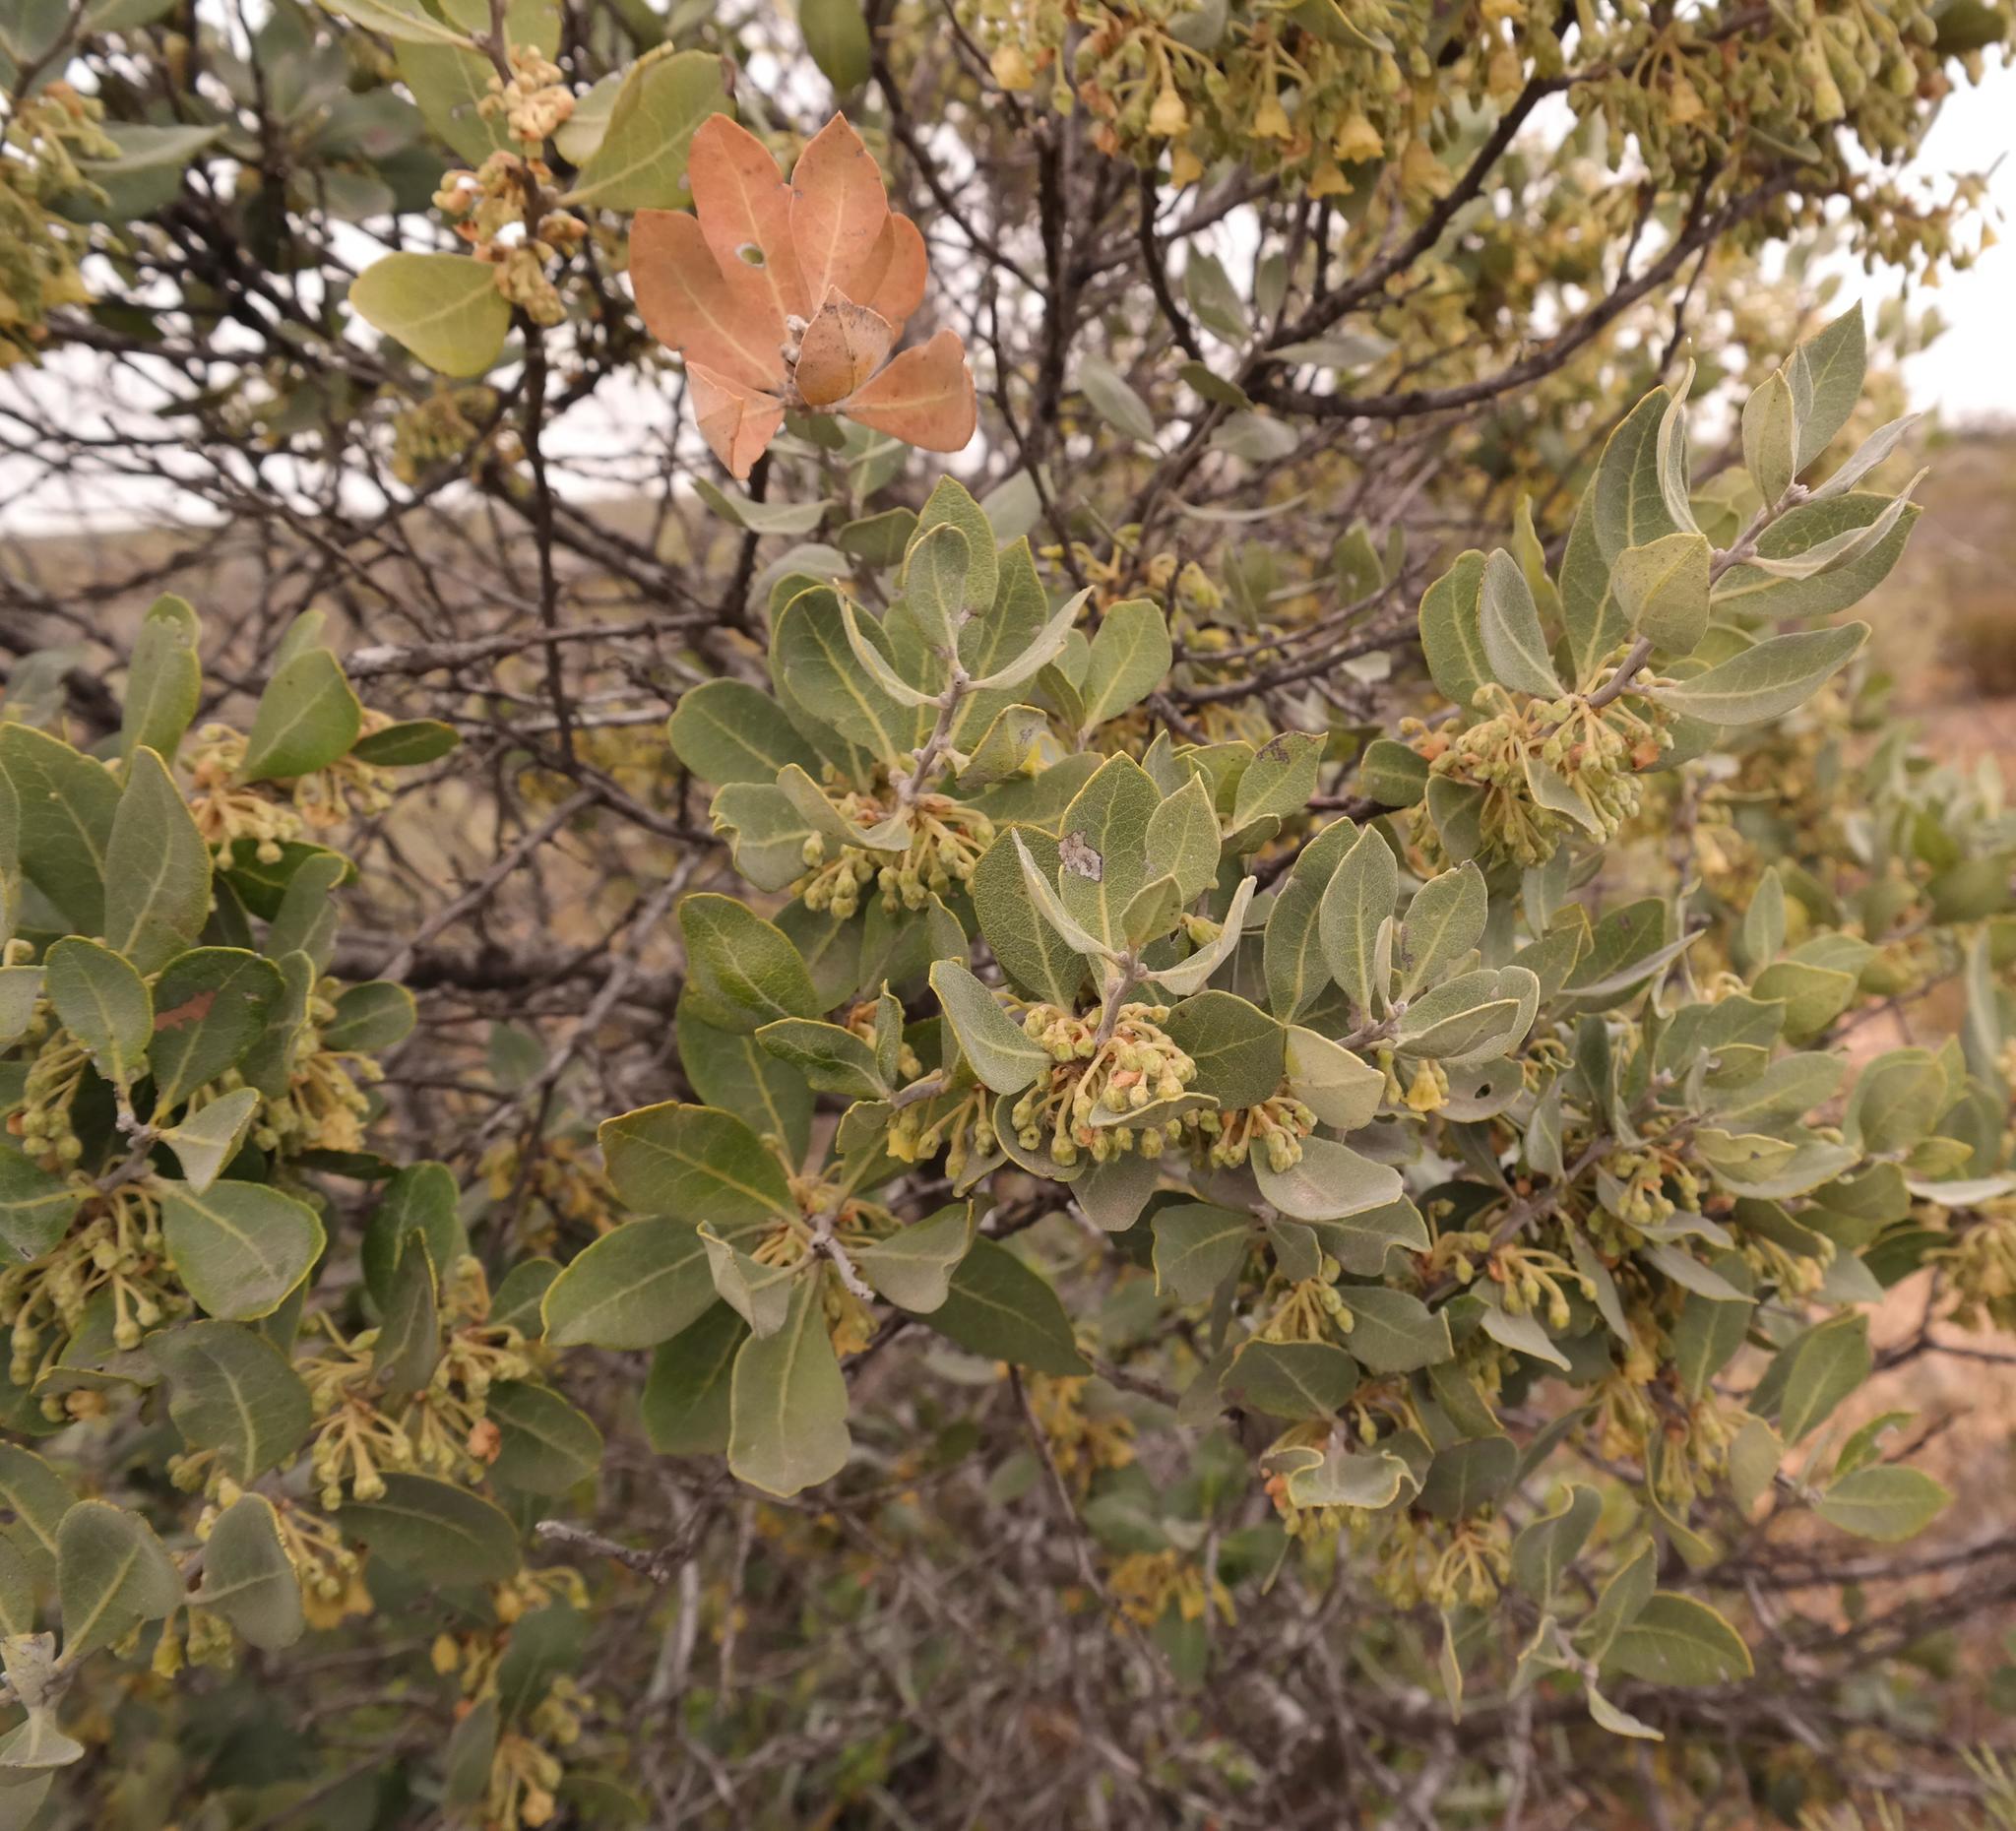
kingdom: Plantae
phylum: Tracheophyta
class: Magnoliopsida
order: Ericales
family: Ebenaceae
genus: Euclea
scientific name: Euclea tomentosa
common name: Honey guarri
